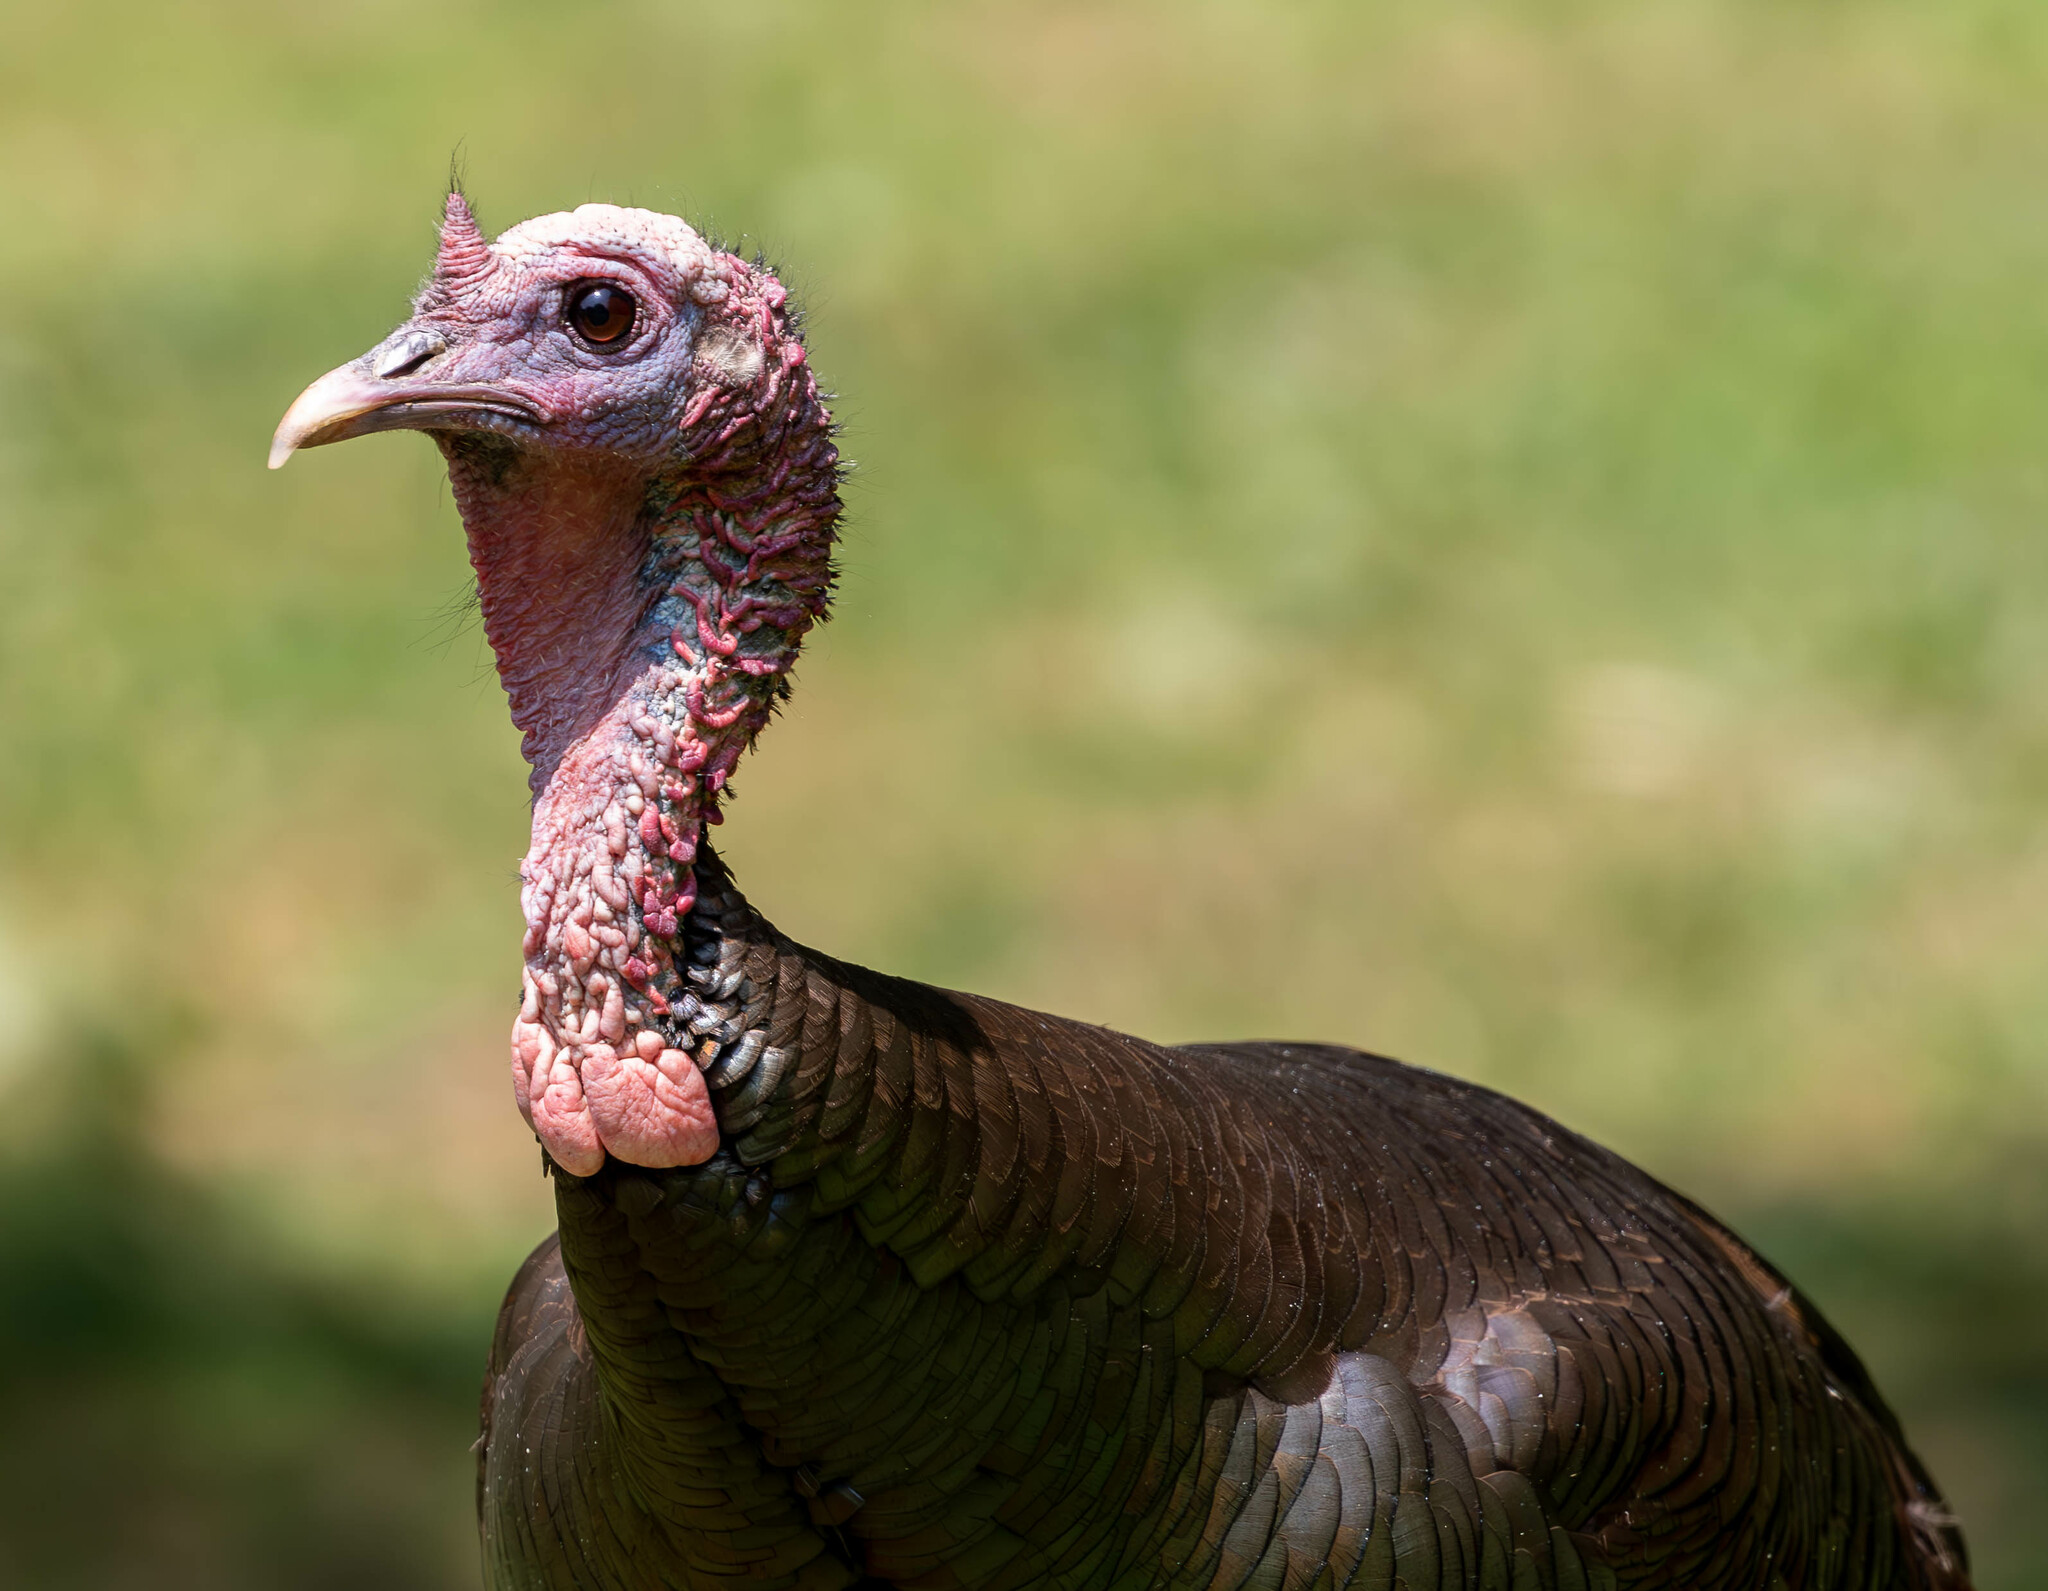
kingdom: Animalia
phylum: Chordata
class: Aves
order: Galliformes
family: Phasianidae
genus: Meleagris
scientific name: Meleagris gallopavo
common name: Wild turkey
